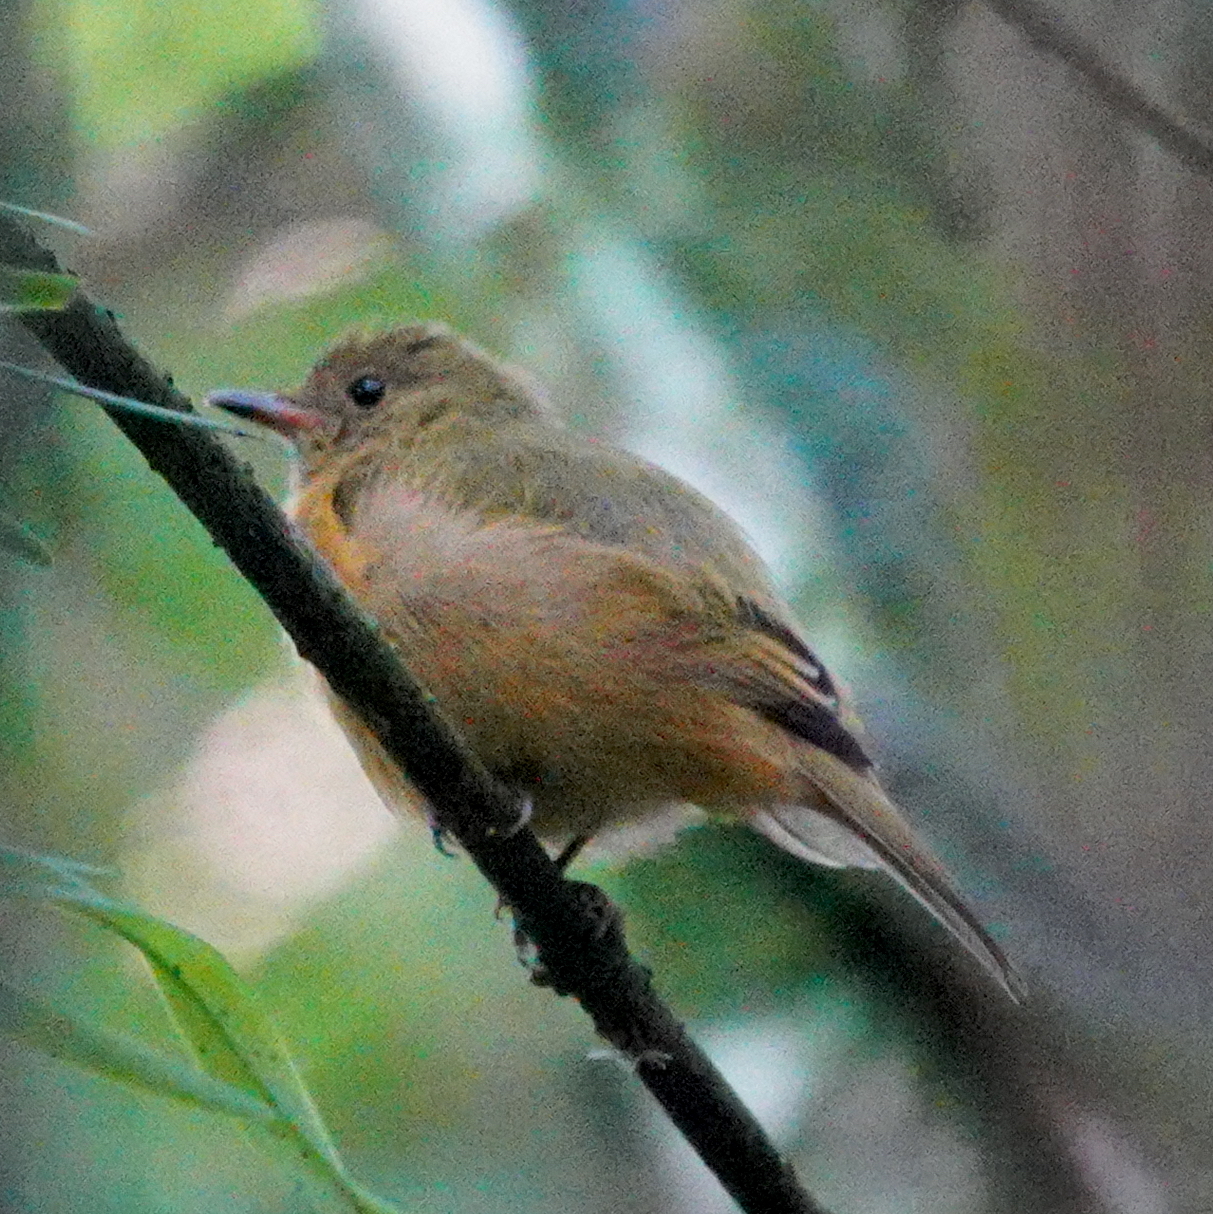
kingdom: Animalia
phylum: Chordata
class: Aves
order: Passeriformes
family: Tyrannidae
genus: Mionectes
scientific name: Mionectes oleagineus
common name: Ochre-bellied flycatcher
